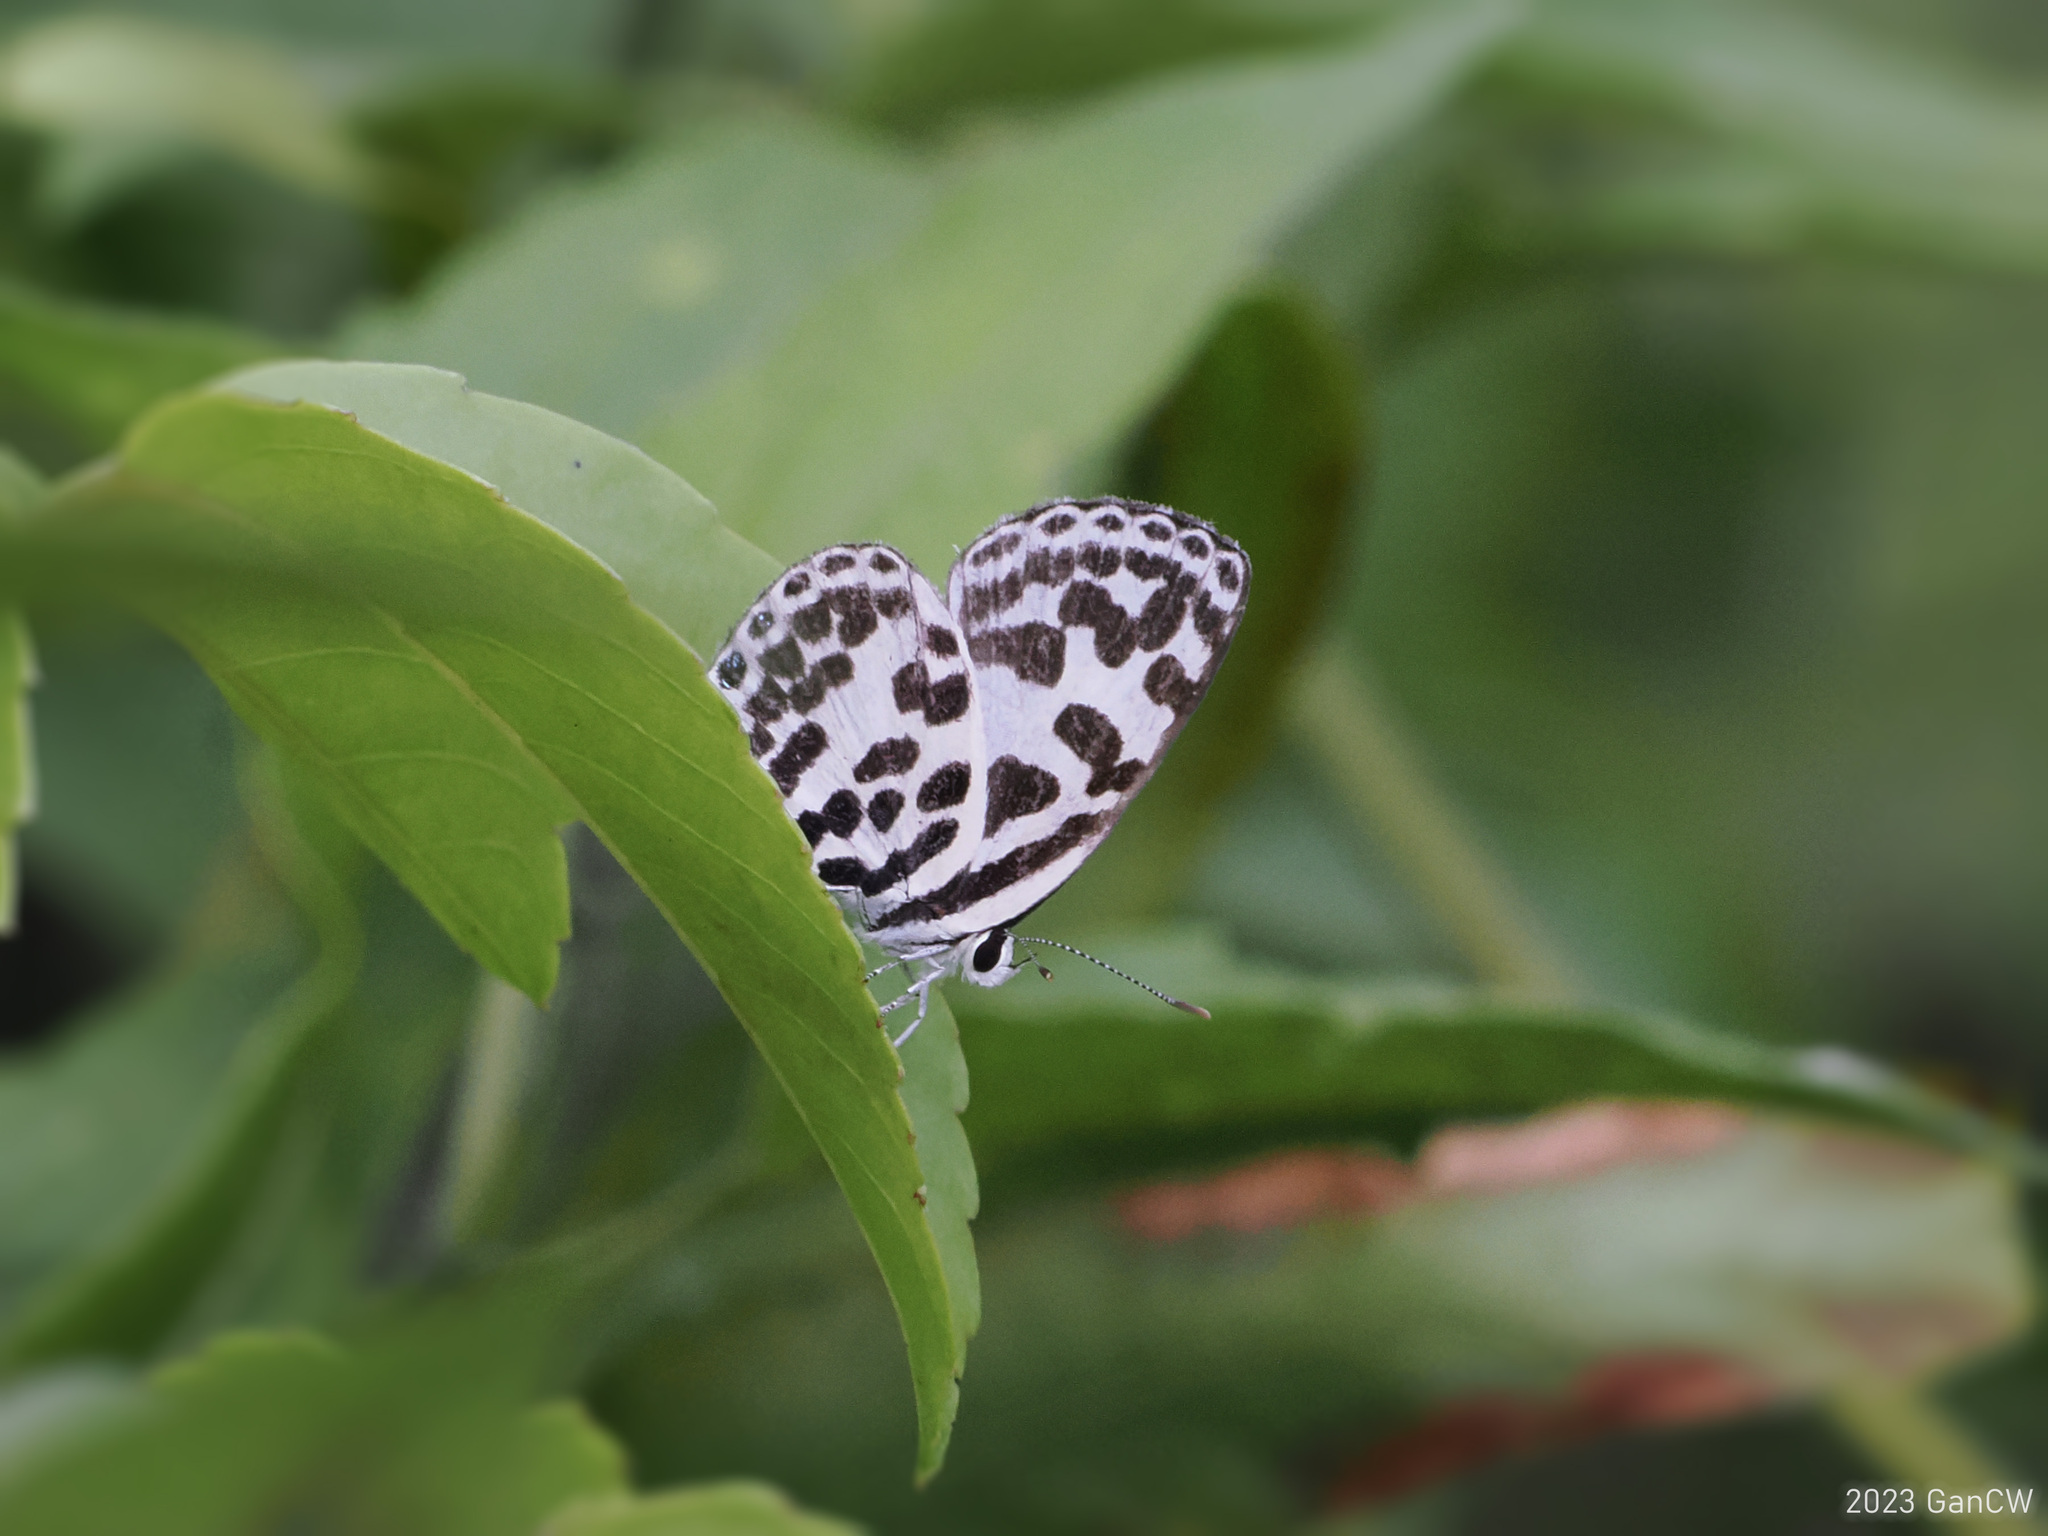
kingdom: Animalia
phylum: Arthropoda
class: Insecta
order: Lepidoptera
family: Lycaenidae
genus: Castalius
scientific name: Castalius rosimon
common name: Common pierrot
